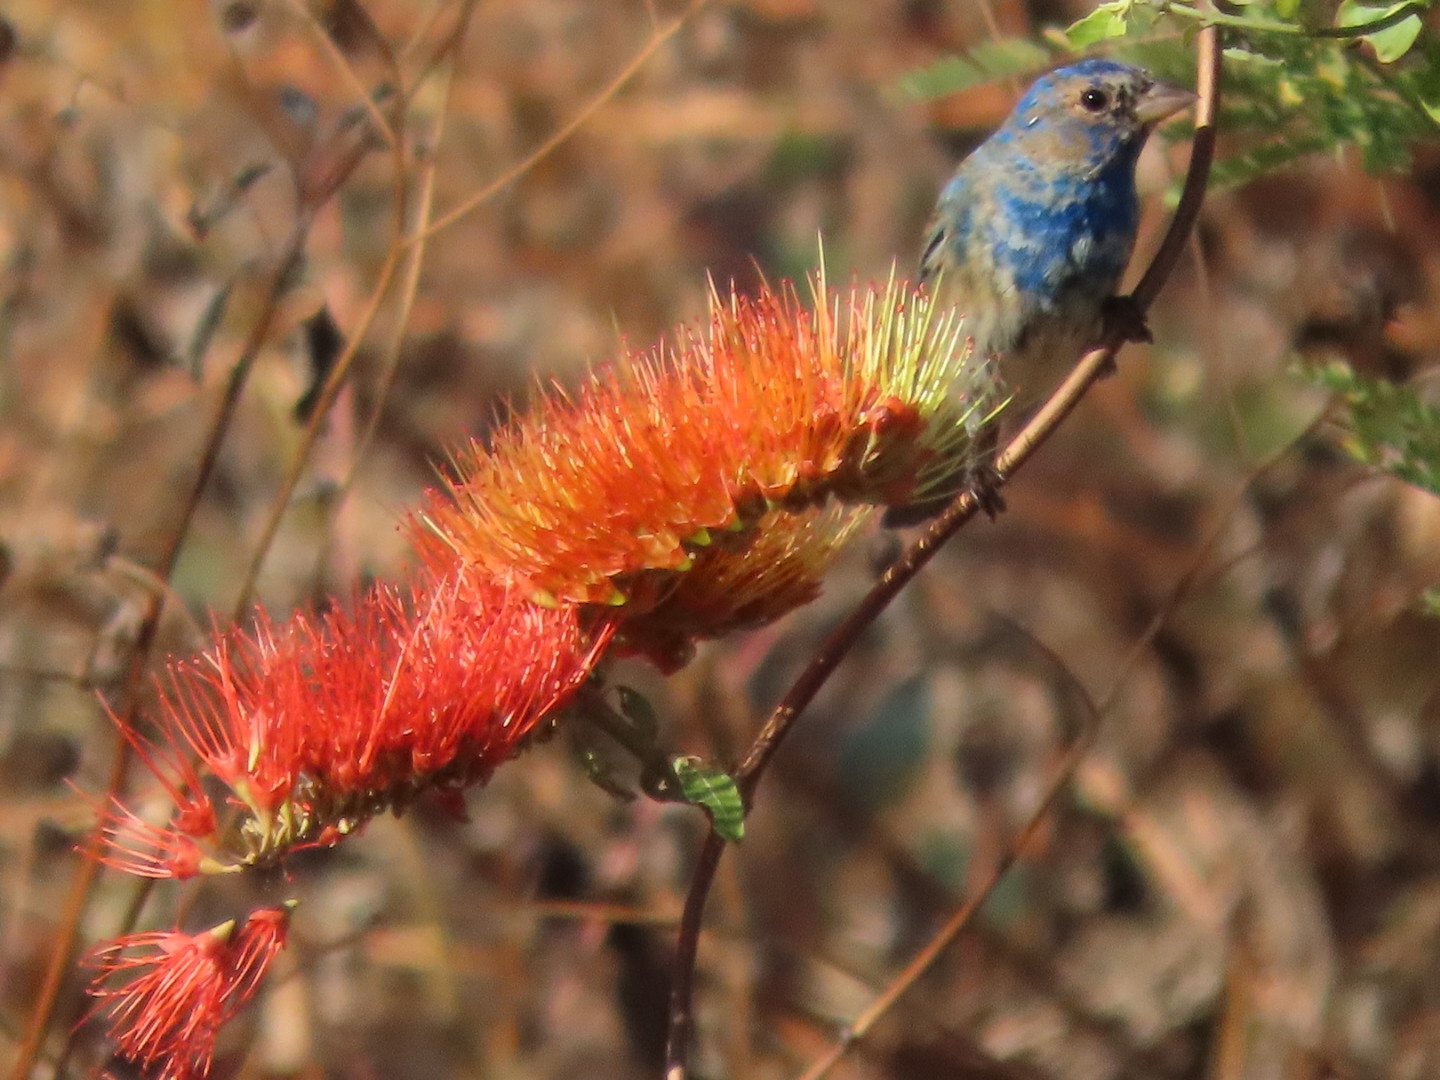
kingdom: Animalia
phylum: Chordata
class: Aves
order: Passeriformes
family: Cardinalidae
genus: Passerina
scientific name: Passerina cyanea
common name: Indigo bunting
